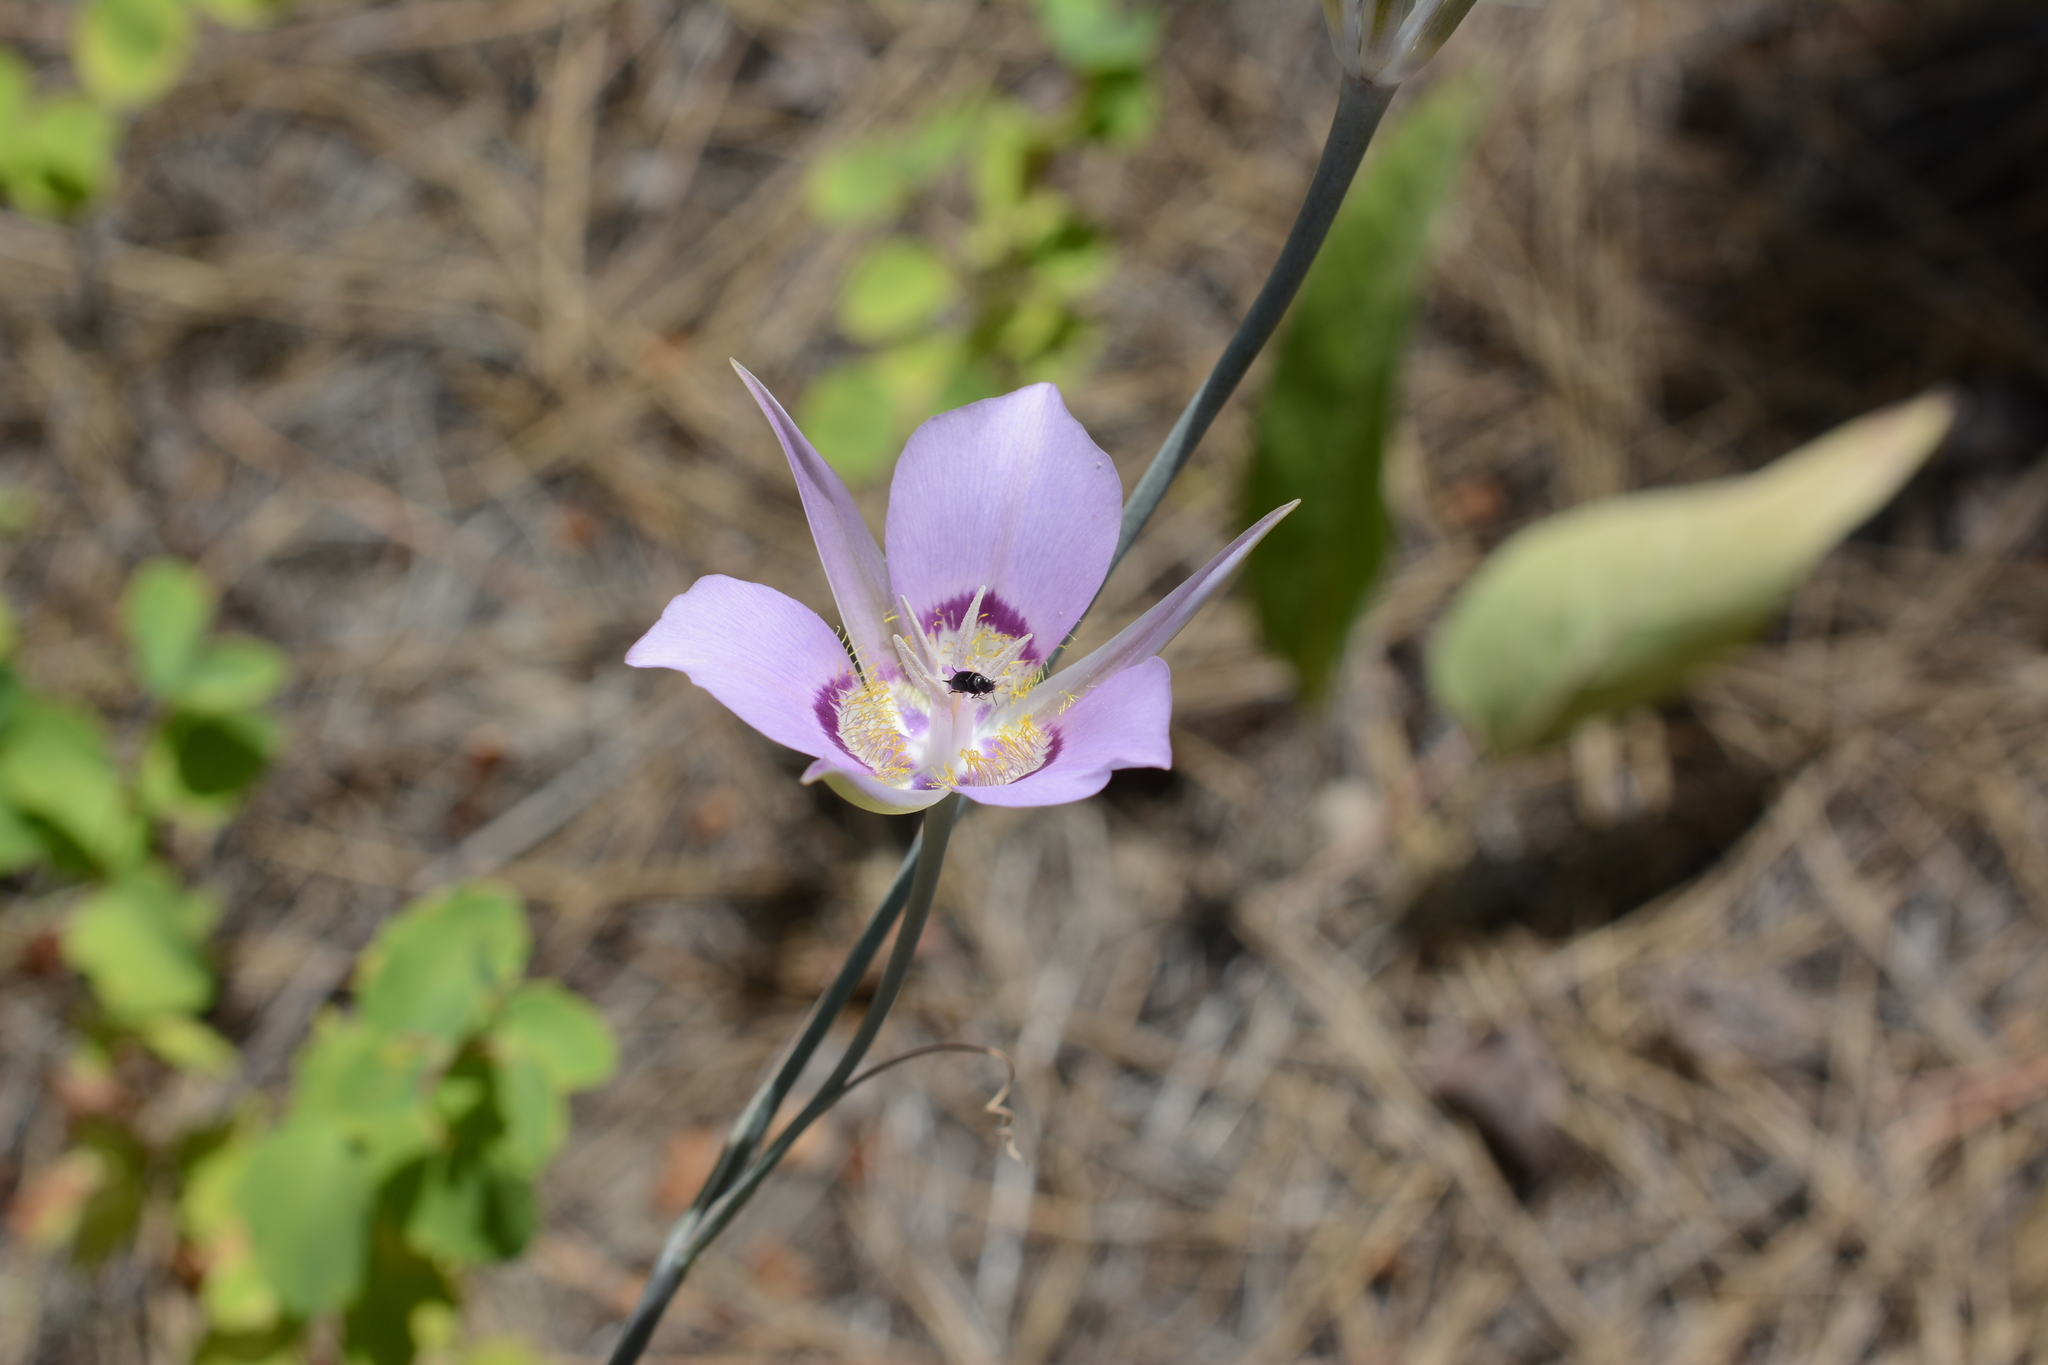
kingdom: Plantae
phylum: Tracheophyta
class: Liliopsida
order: Liliales
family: Liliaceae
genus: Calochortus
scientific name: Calochortus macrocarpus
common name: Green-band mariposa lily
